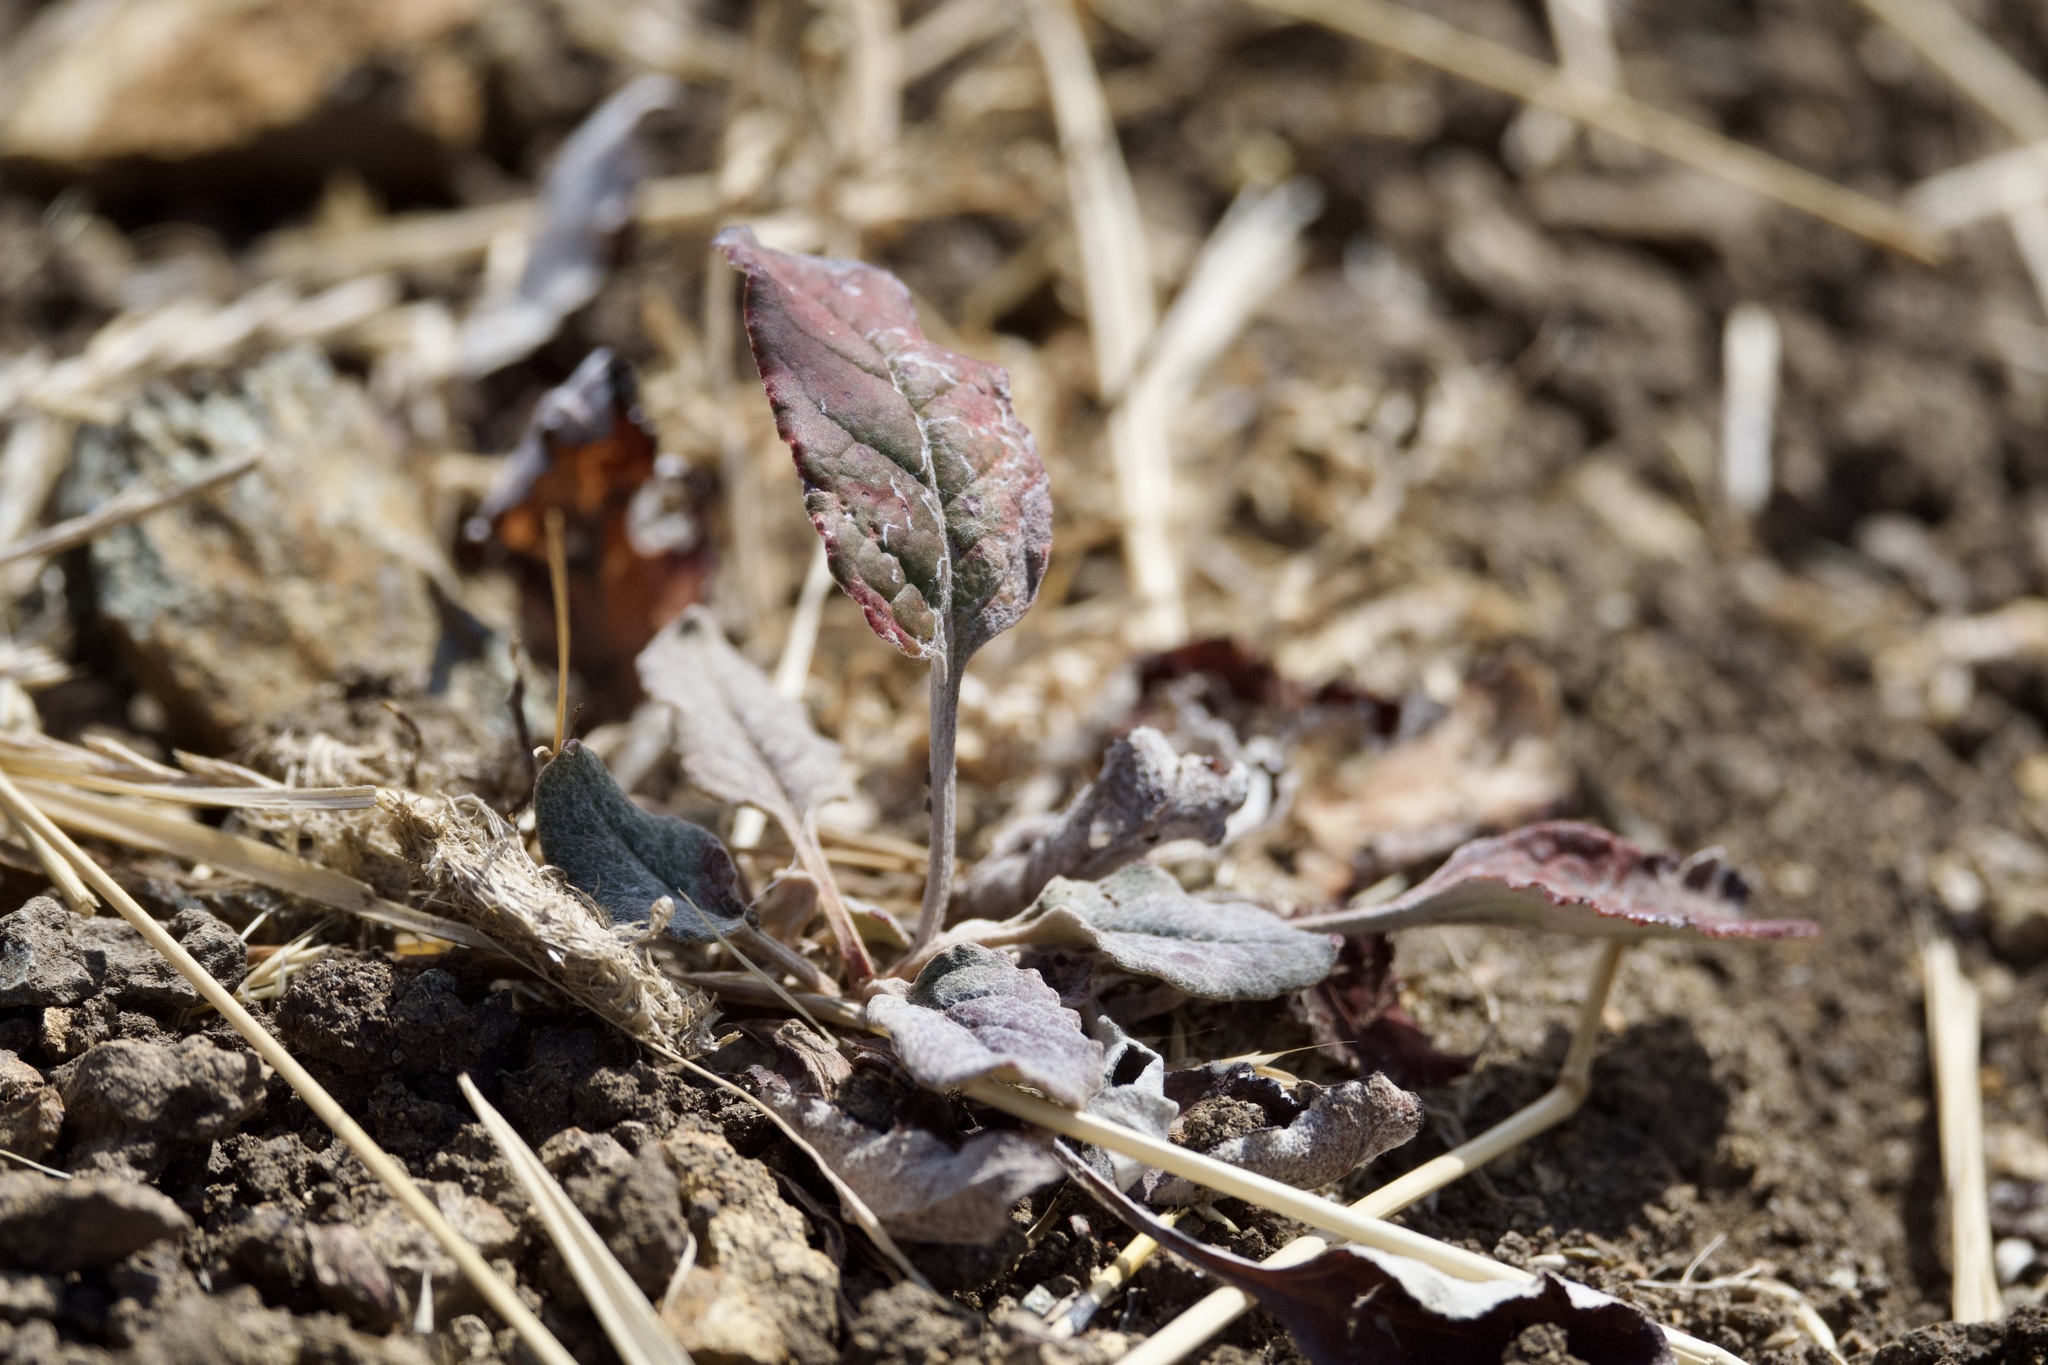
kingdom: Plantae
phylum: Tracheophyta
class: Magnoliopsida
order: Caryophyllales
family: Polygonaceae
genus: Eriogonum
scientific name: Eriogonum nudum
